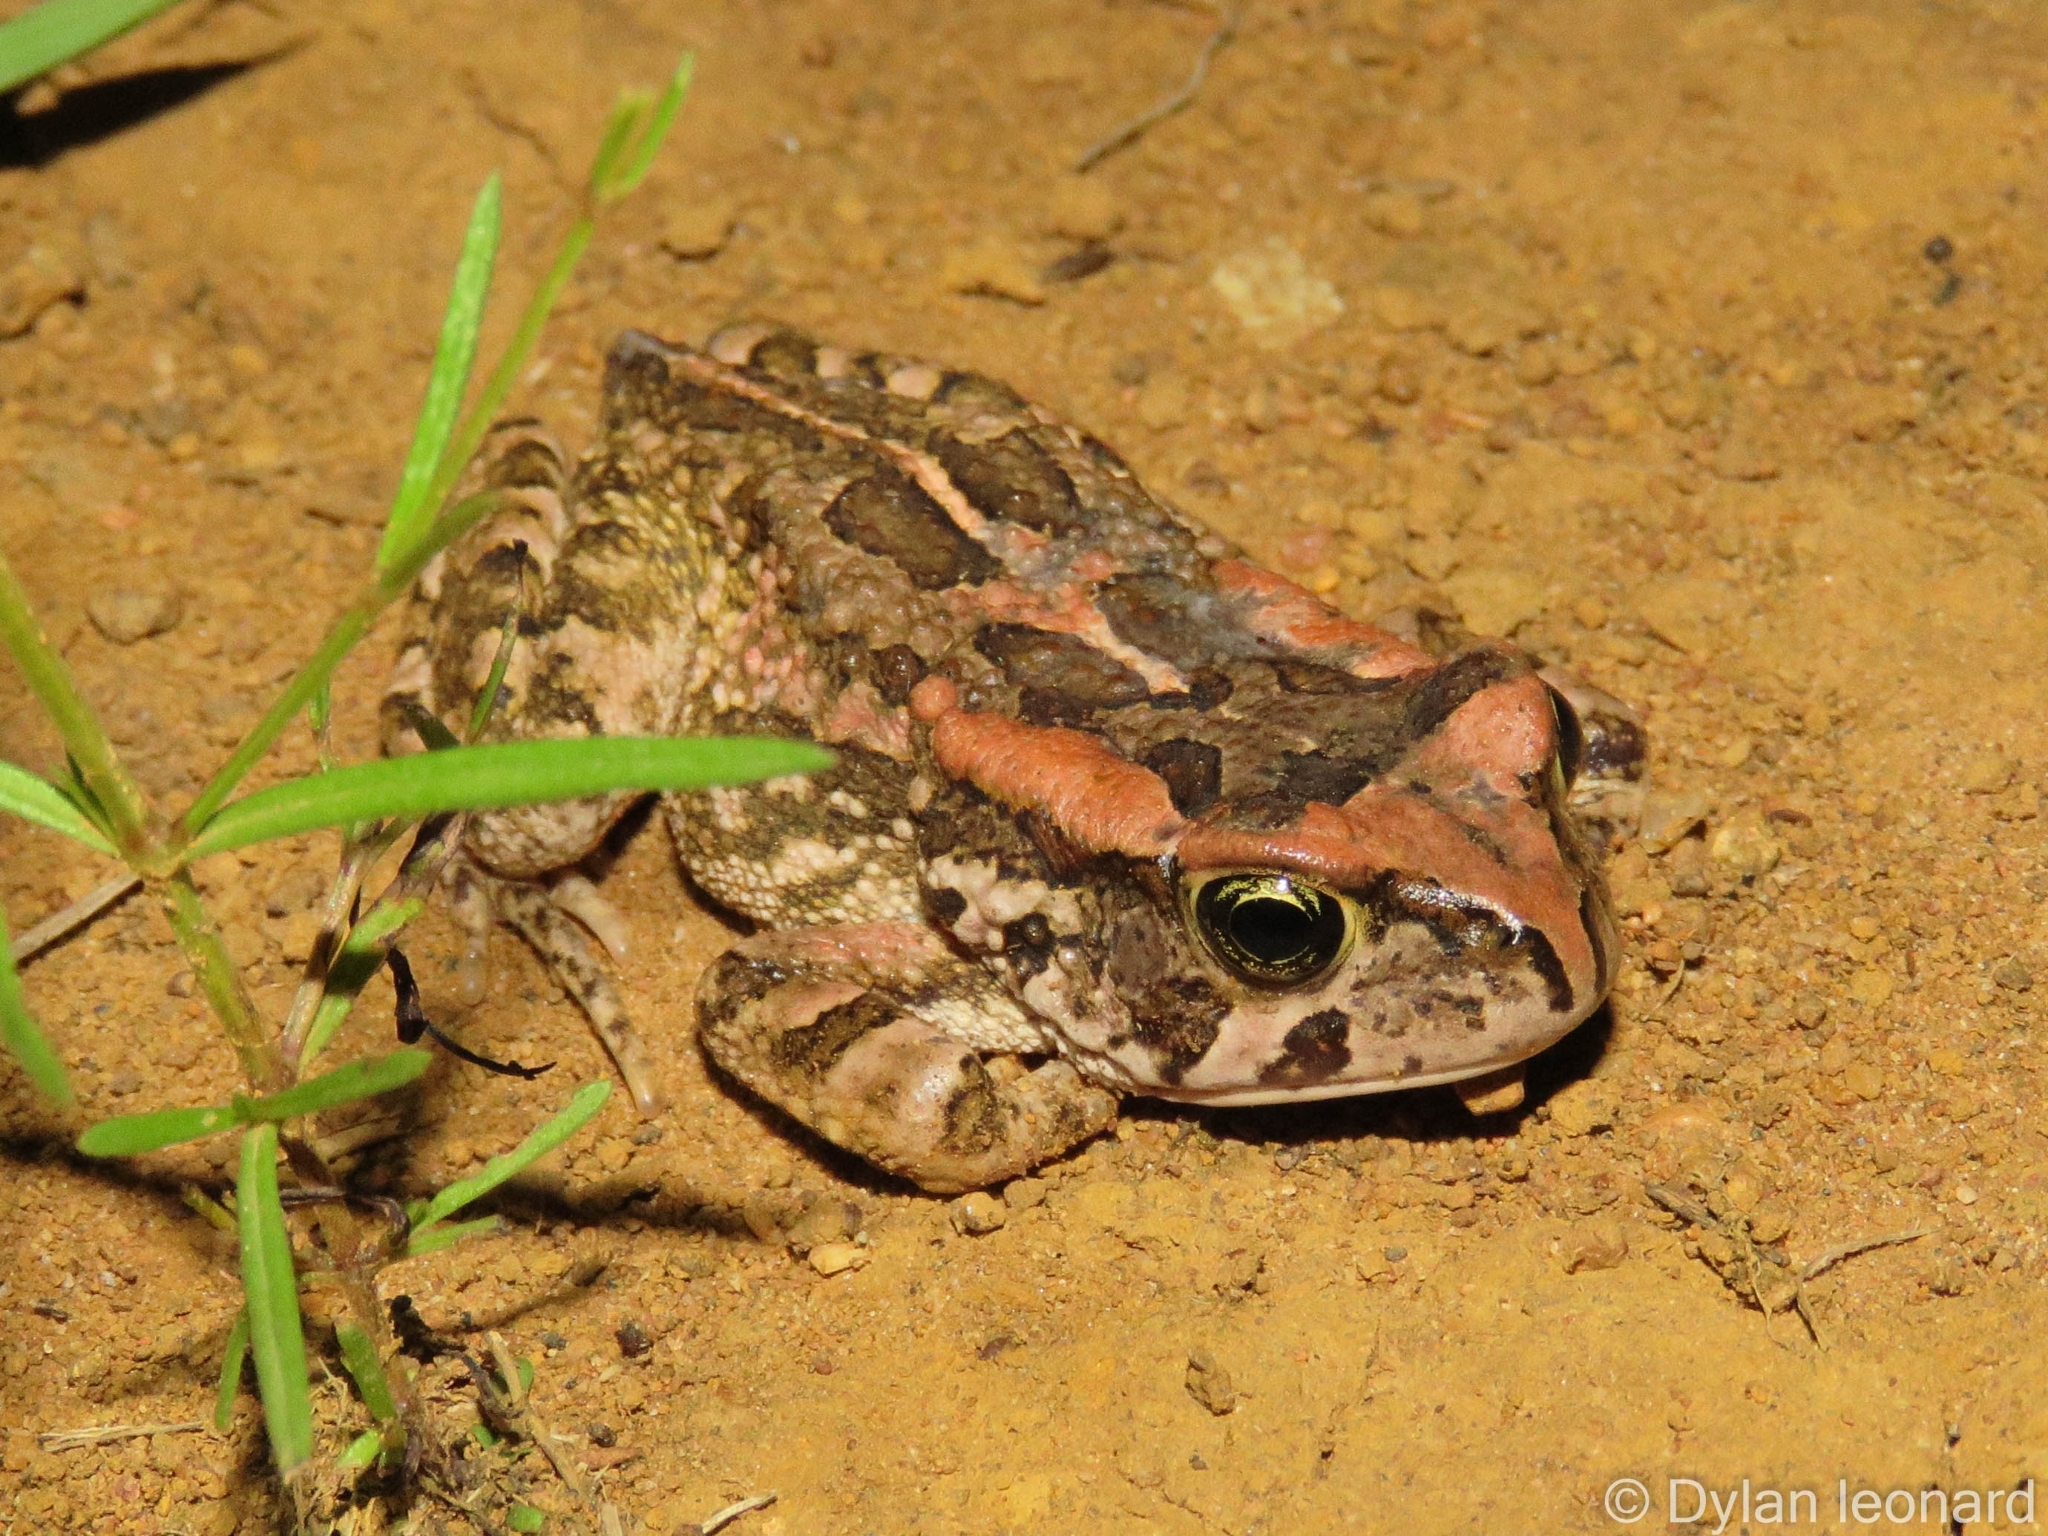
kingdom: Animalia
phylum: Chordata
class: Amphibia
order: Anura
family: Bufonidae
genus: Sclerophrys
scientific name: Sclerophrys capensis
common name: Ranger’s toad
